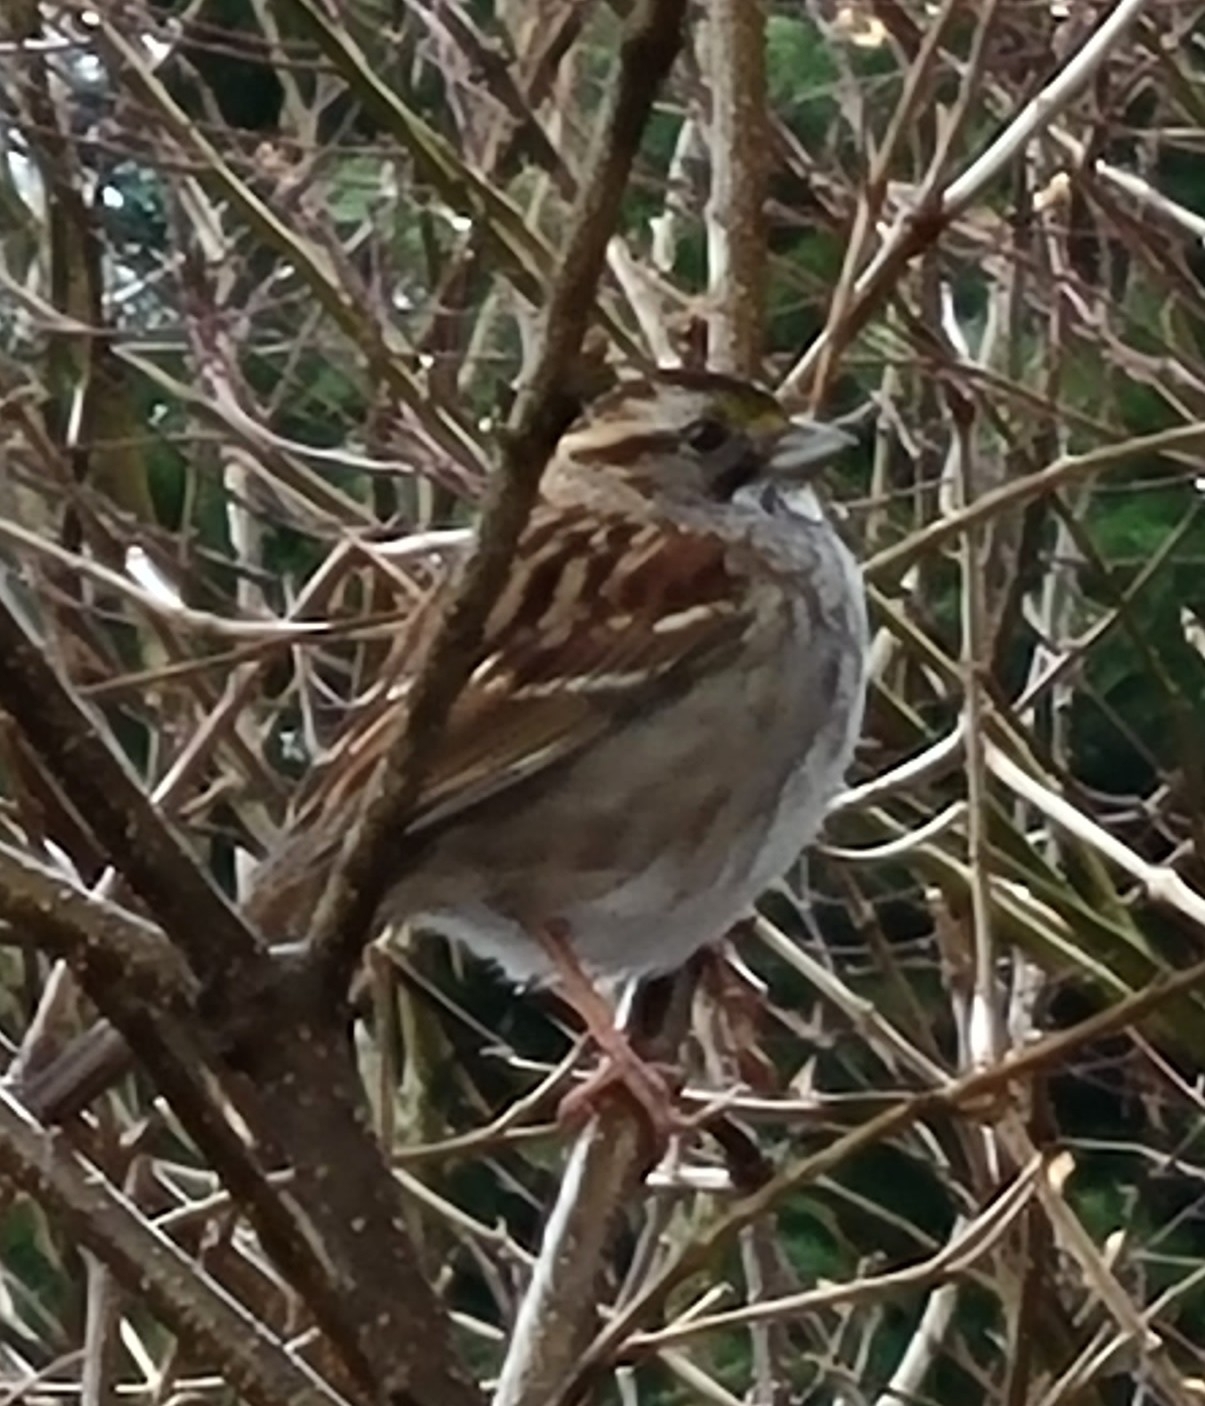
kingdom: Animalia
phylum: Chordata
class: Aves
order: Passeriformes
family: Passerellidae
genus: Zonotrichia
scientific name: Zonotrichia albicollis
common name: White-throated sparrow
